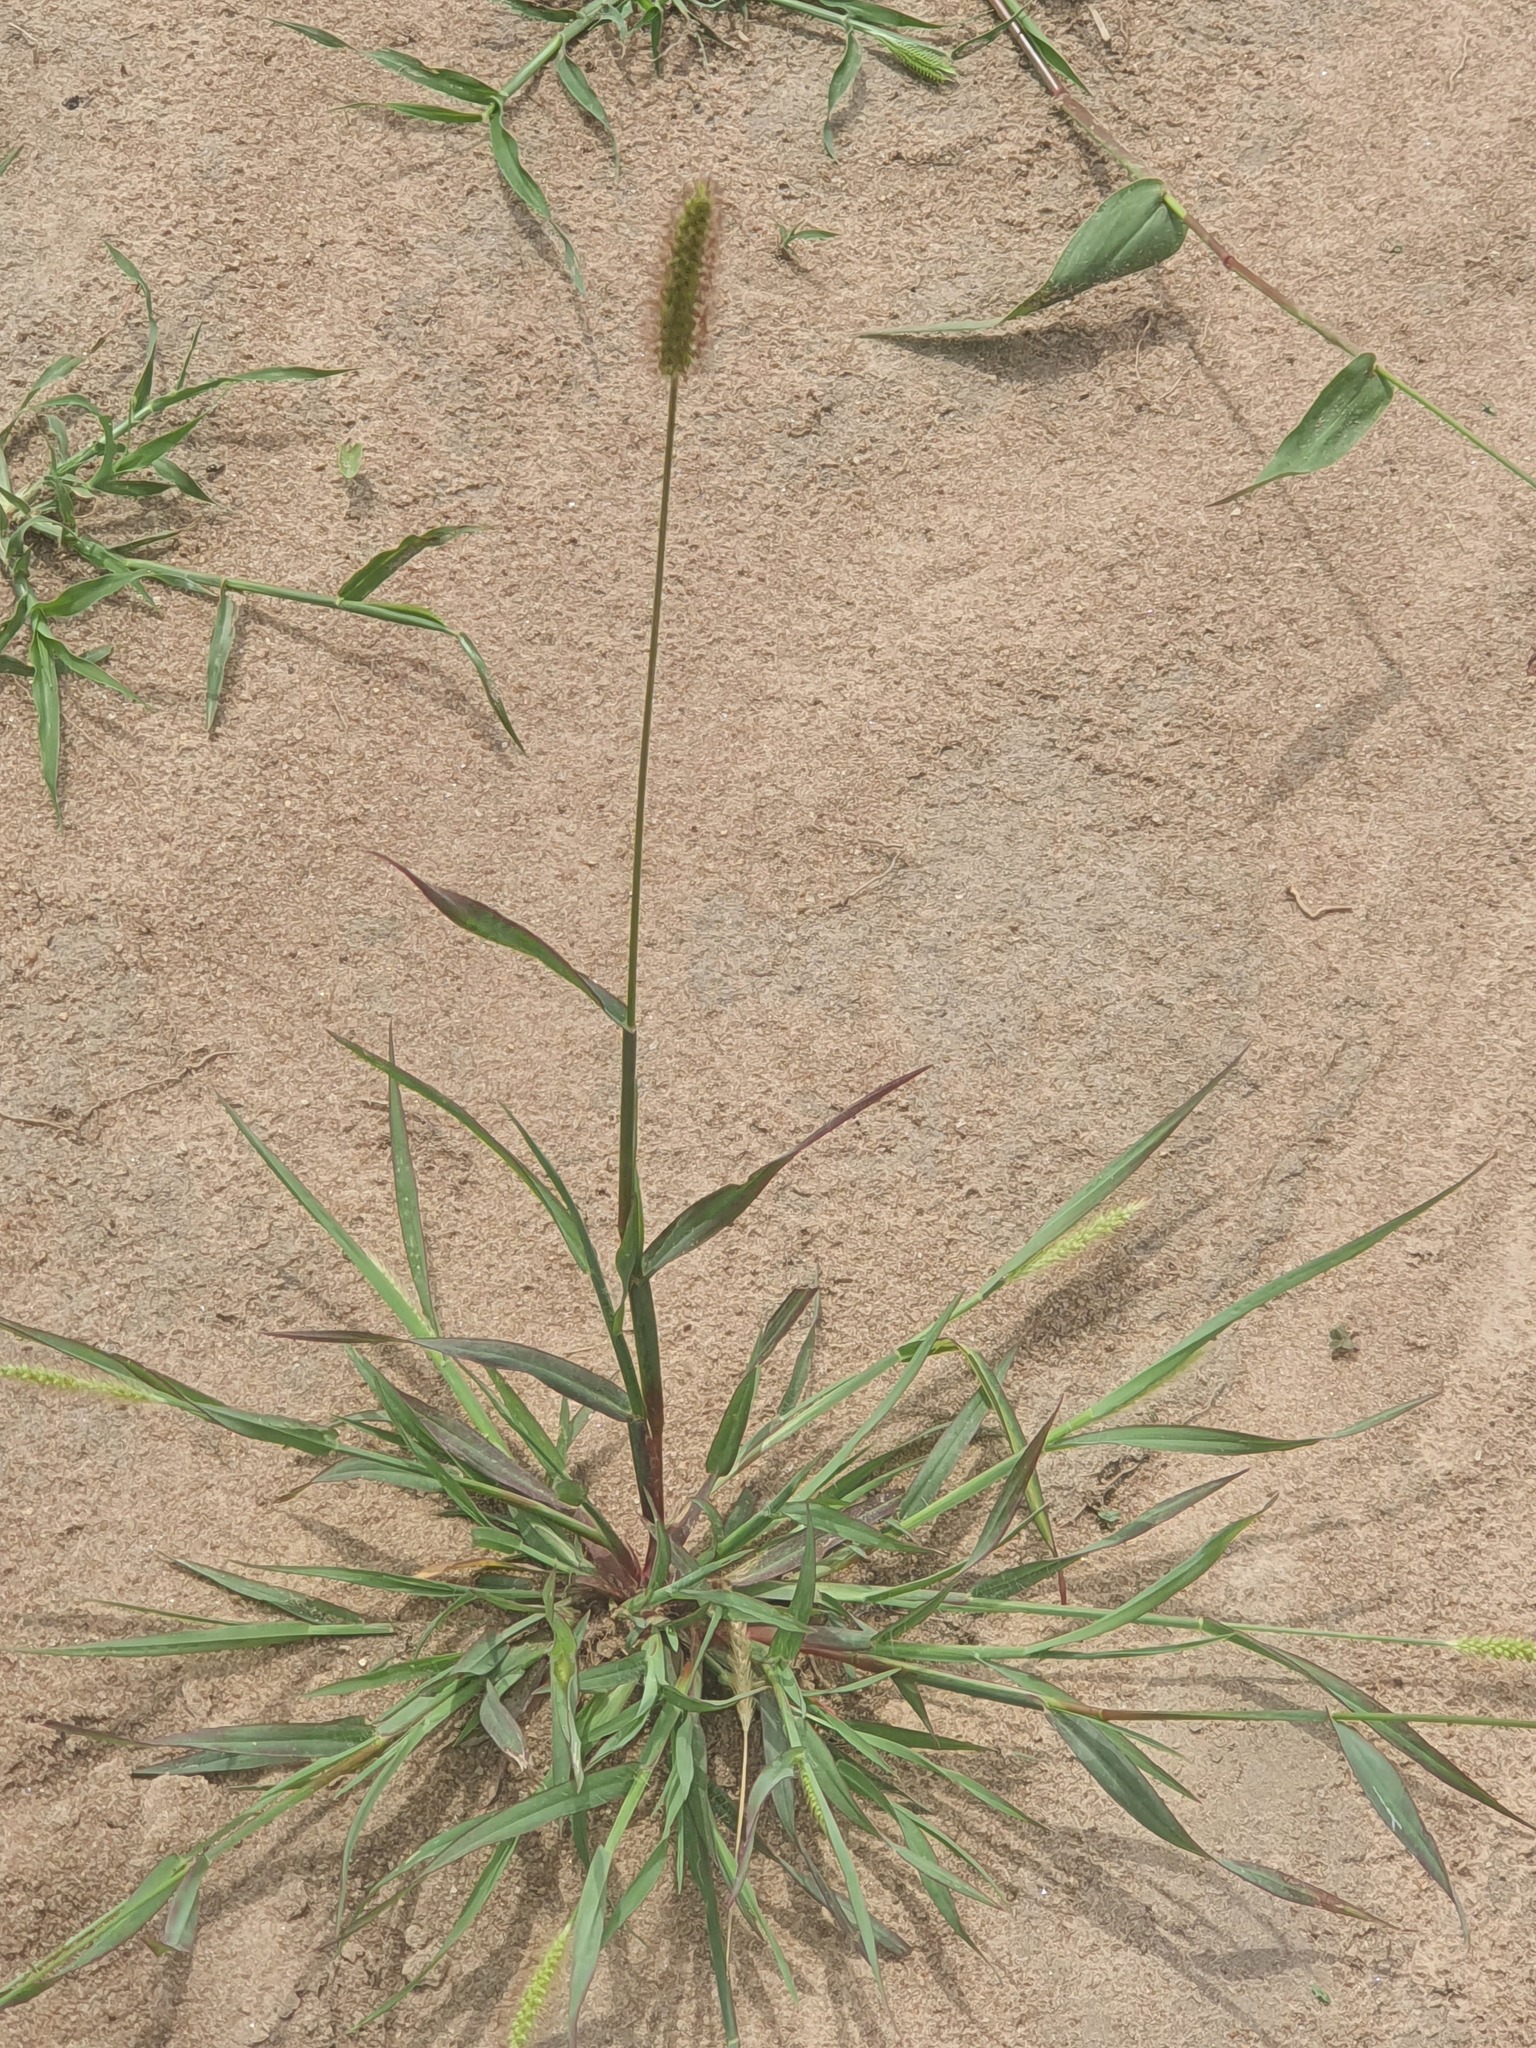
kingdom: Plantae
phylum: Tracheophyta
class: Liliopsida
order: Poales
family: Poaceae
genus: Setaria
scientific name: Setaria viridis
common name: Green bristlegrass
